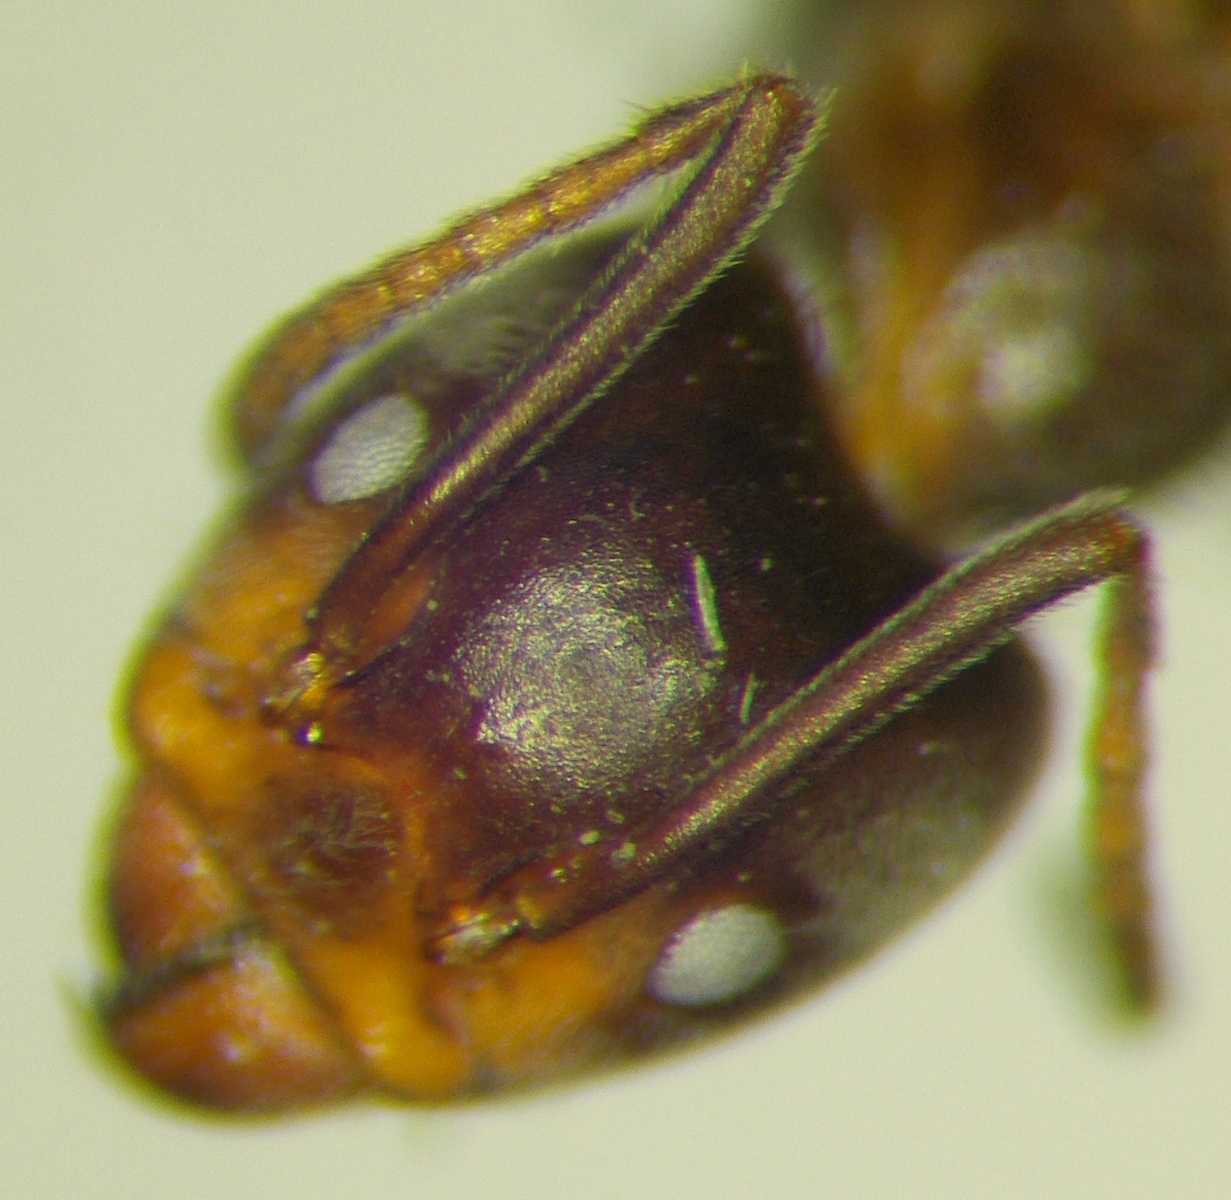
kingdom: Animalia
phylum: Arthropoda
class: Insecta
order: Hymenoptera
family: Formicidae
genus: Liometopum
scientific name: Liometopum apiculatum
